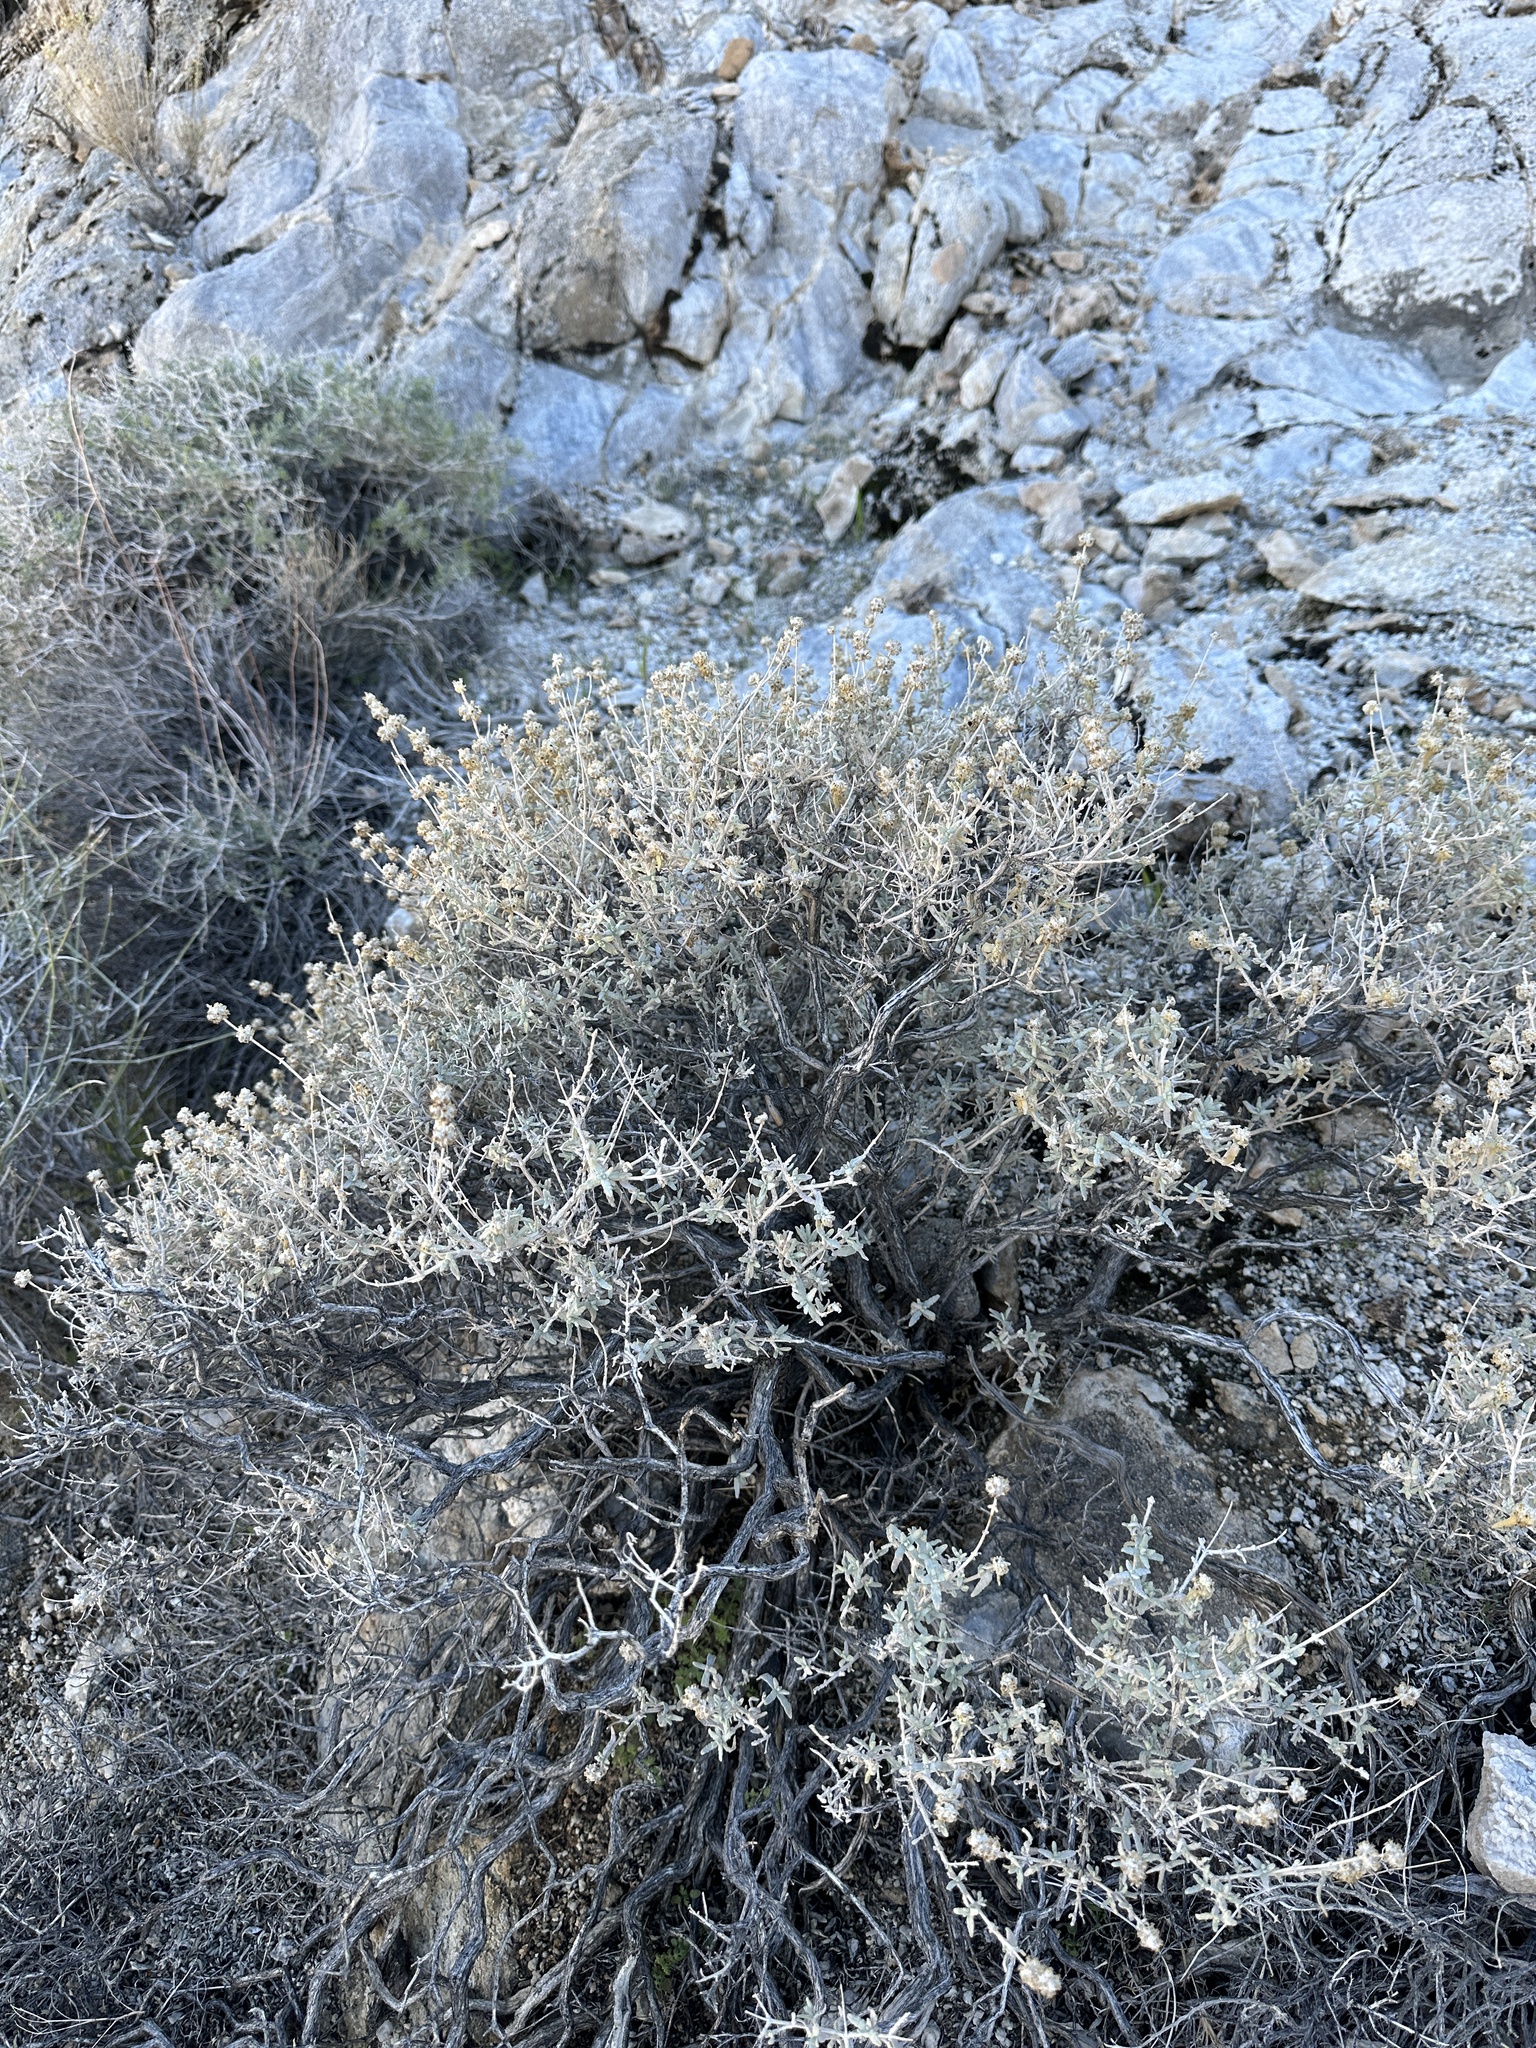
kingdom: Plantae
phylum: Tracheophyta
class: Magnoliopsida
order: Lamiales
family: Scrophulariaceae
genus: Buddleja
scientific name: Buddleja utahensis
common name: Utah butterfly-bush
